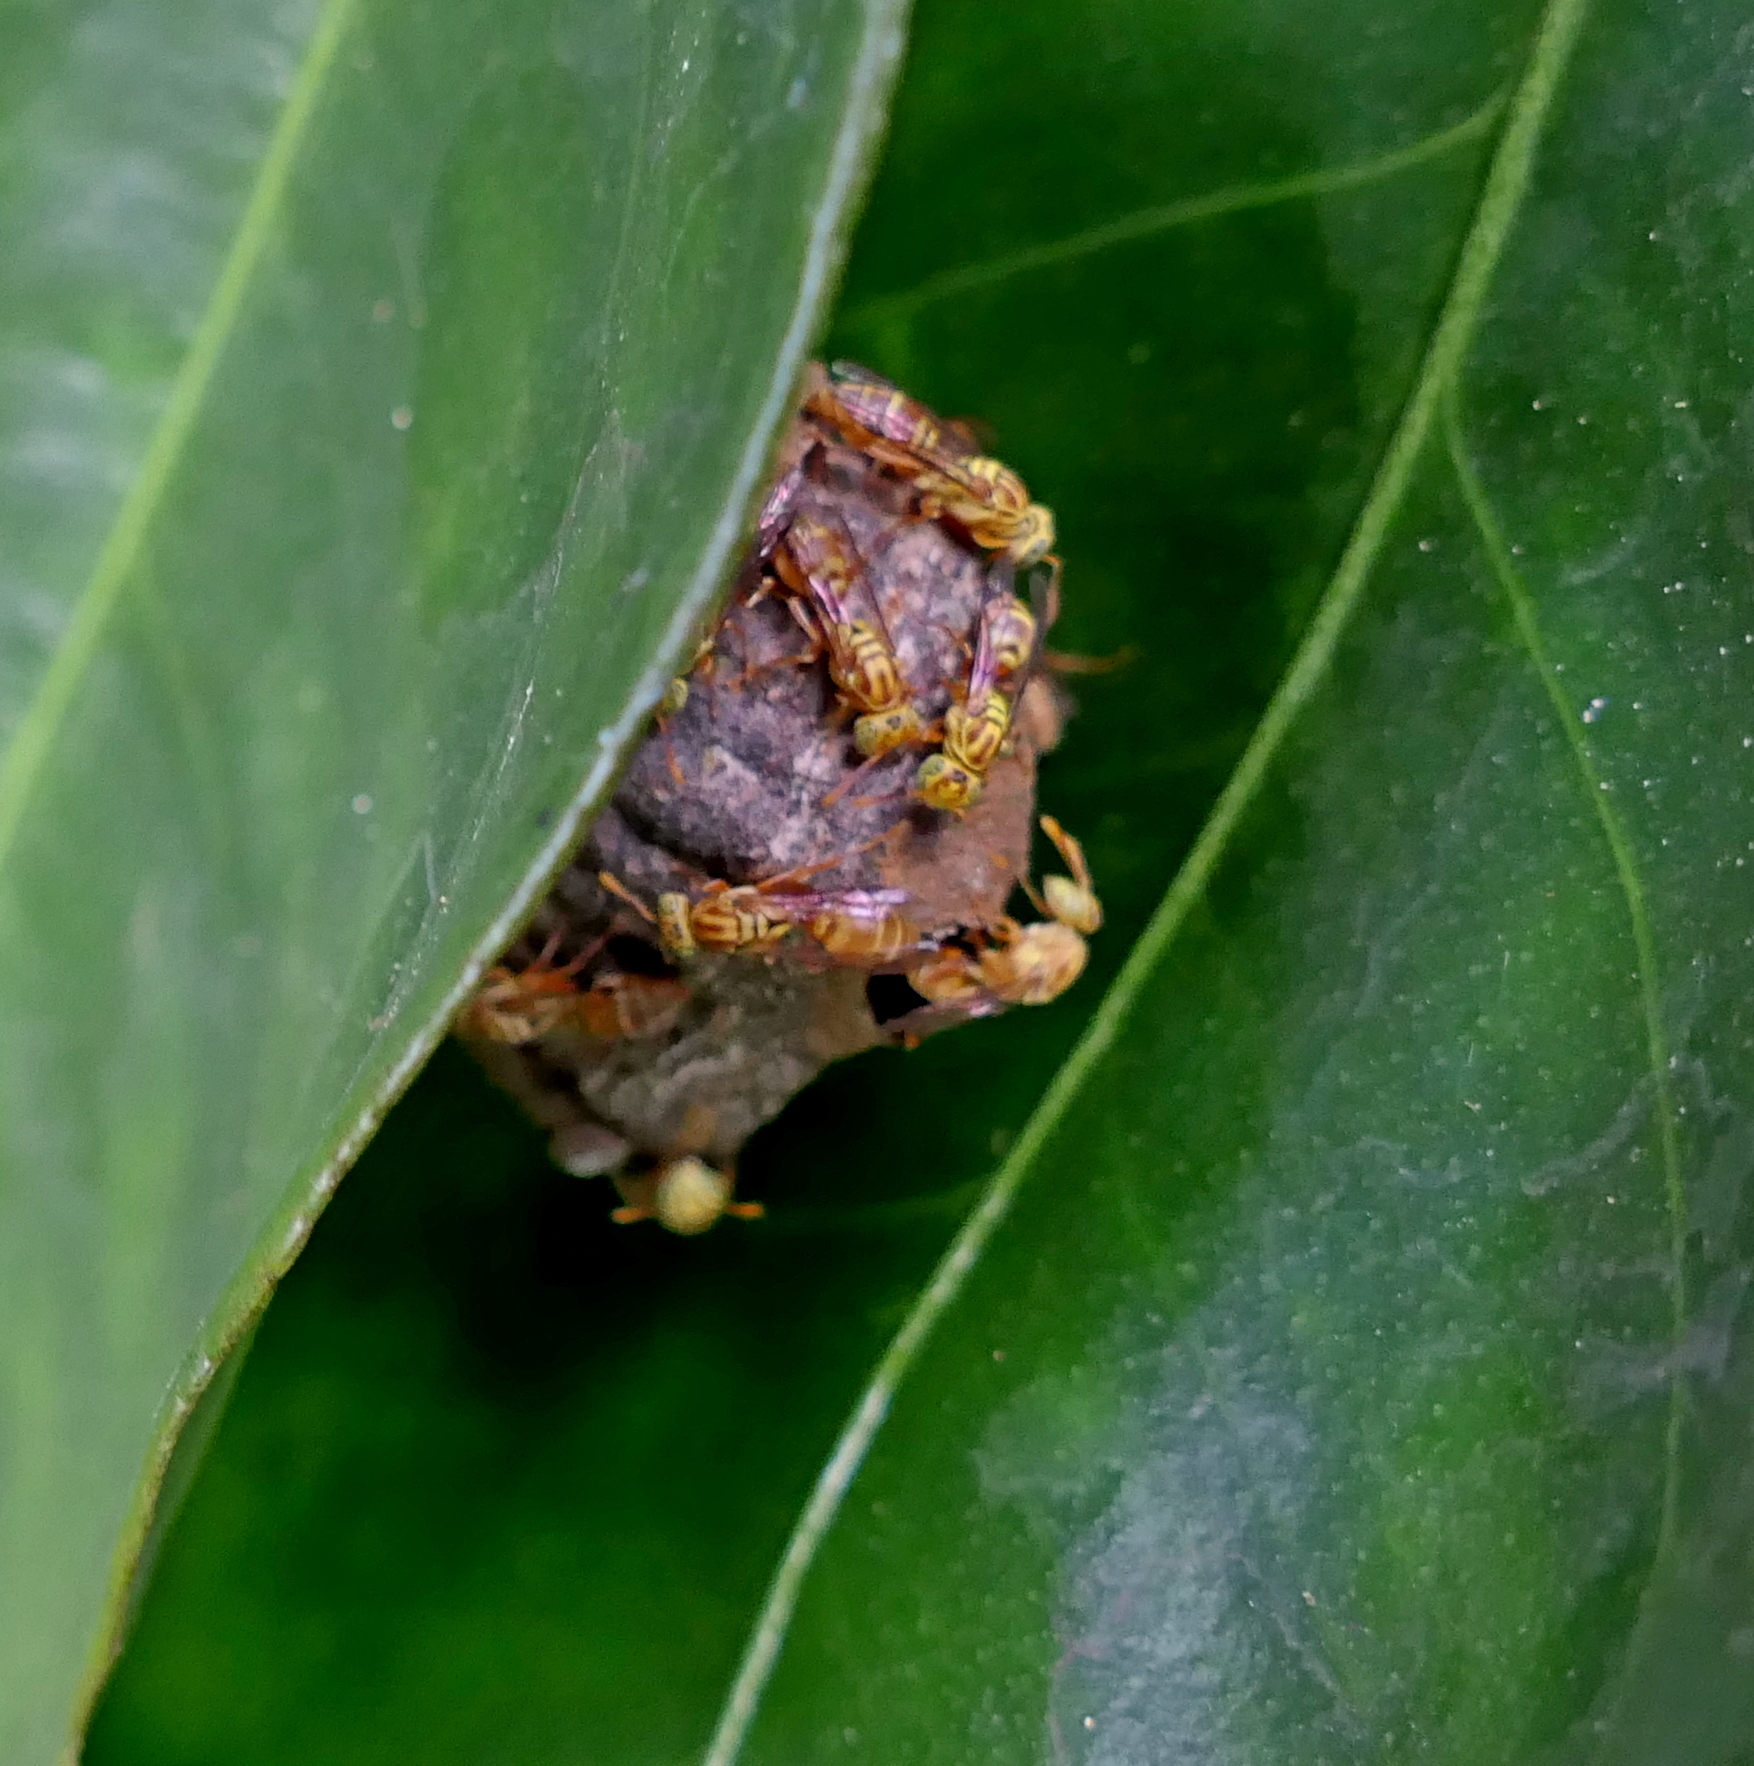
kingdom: Animalia
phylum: Arthropoda
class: Insecta
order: Hymenoptera
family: Vespidae
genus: Protopolybia
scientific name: Protopolybia potiguara
